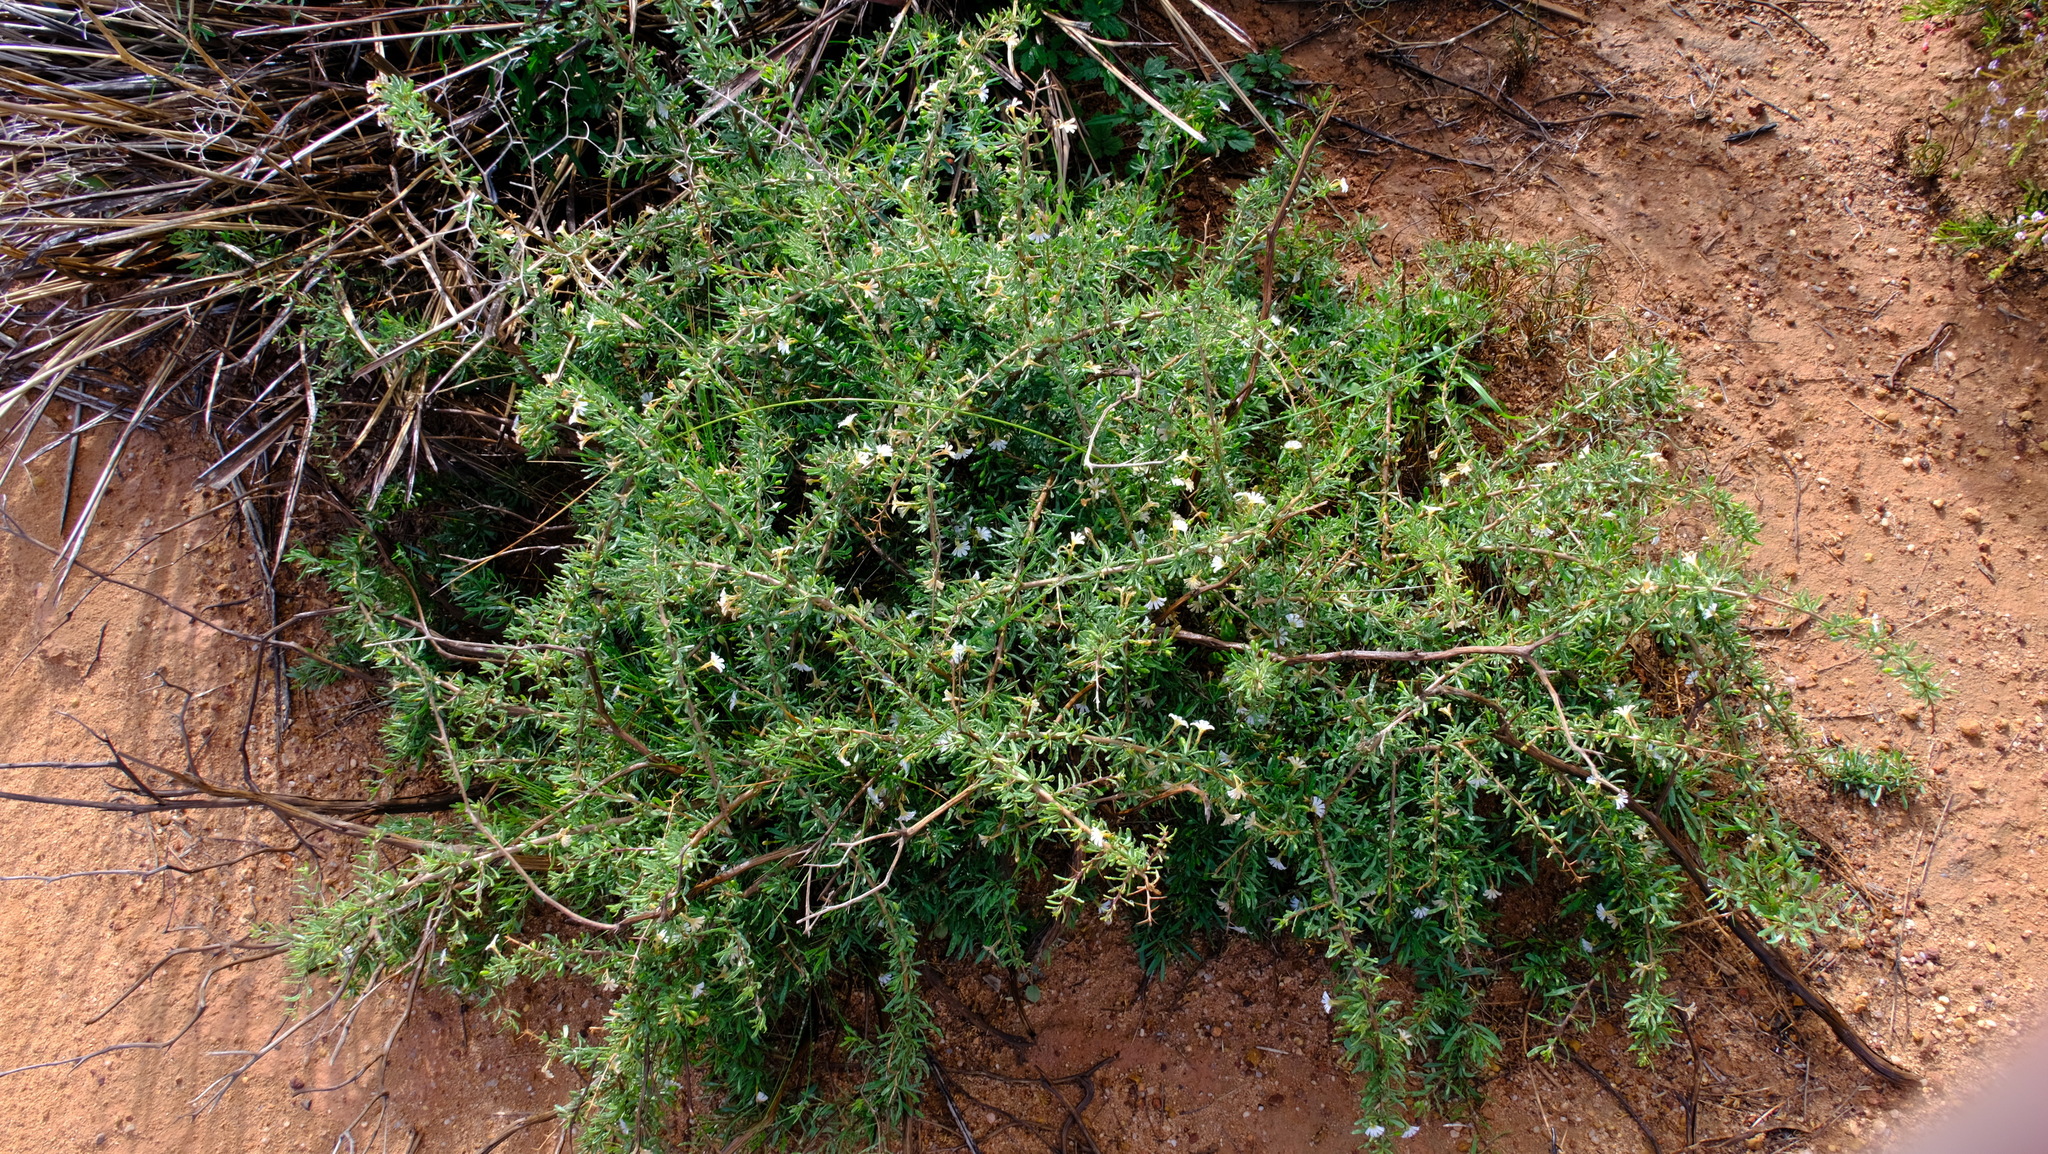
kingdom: Plantae
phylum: Tracheophyta
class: Magnoliopsida
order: Asterales
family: Goodeniaceae
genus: Scaevola
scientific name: Scaevola spinescens
